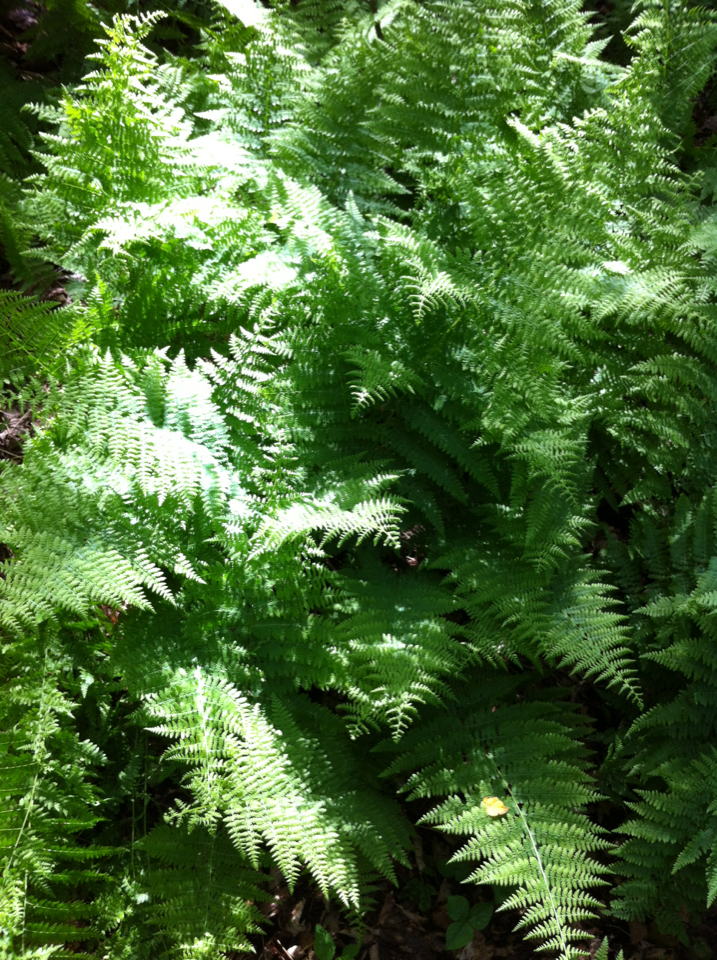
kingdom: Plantae
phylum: Tracheophyta
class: Polypodiopsida
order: Polypodiales
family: Dennstaedtiaceae
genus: Sitobolium
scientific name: Sitobolium punctilobum
